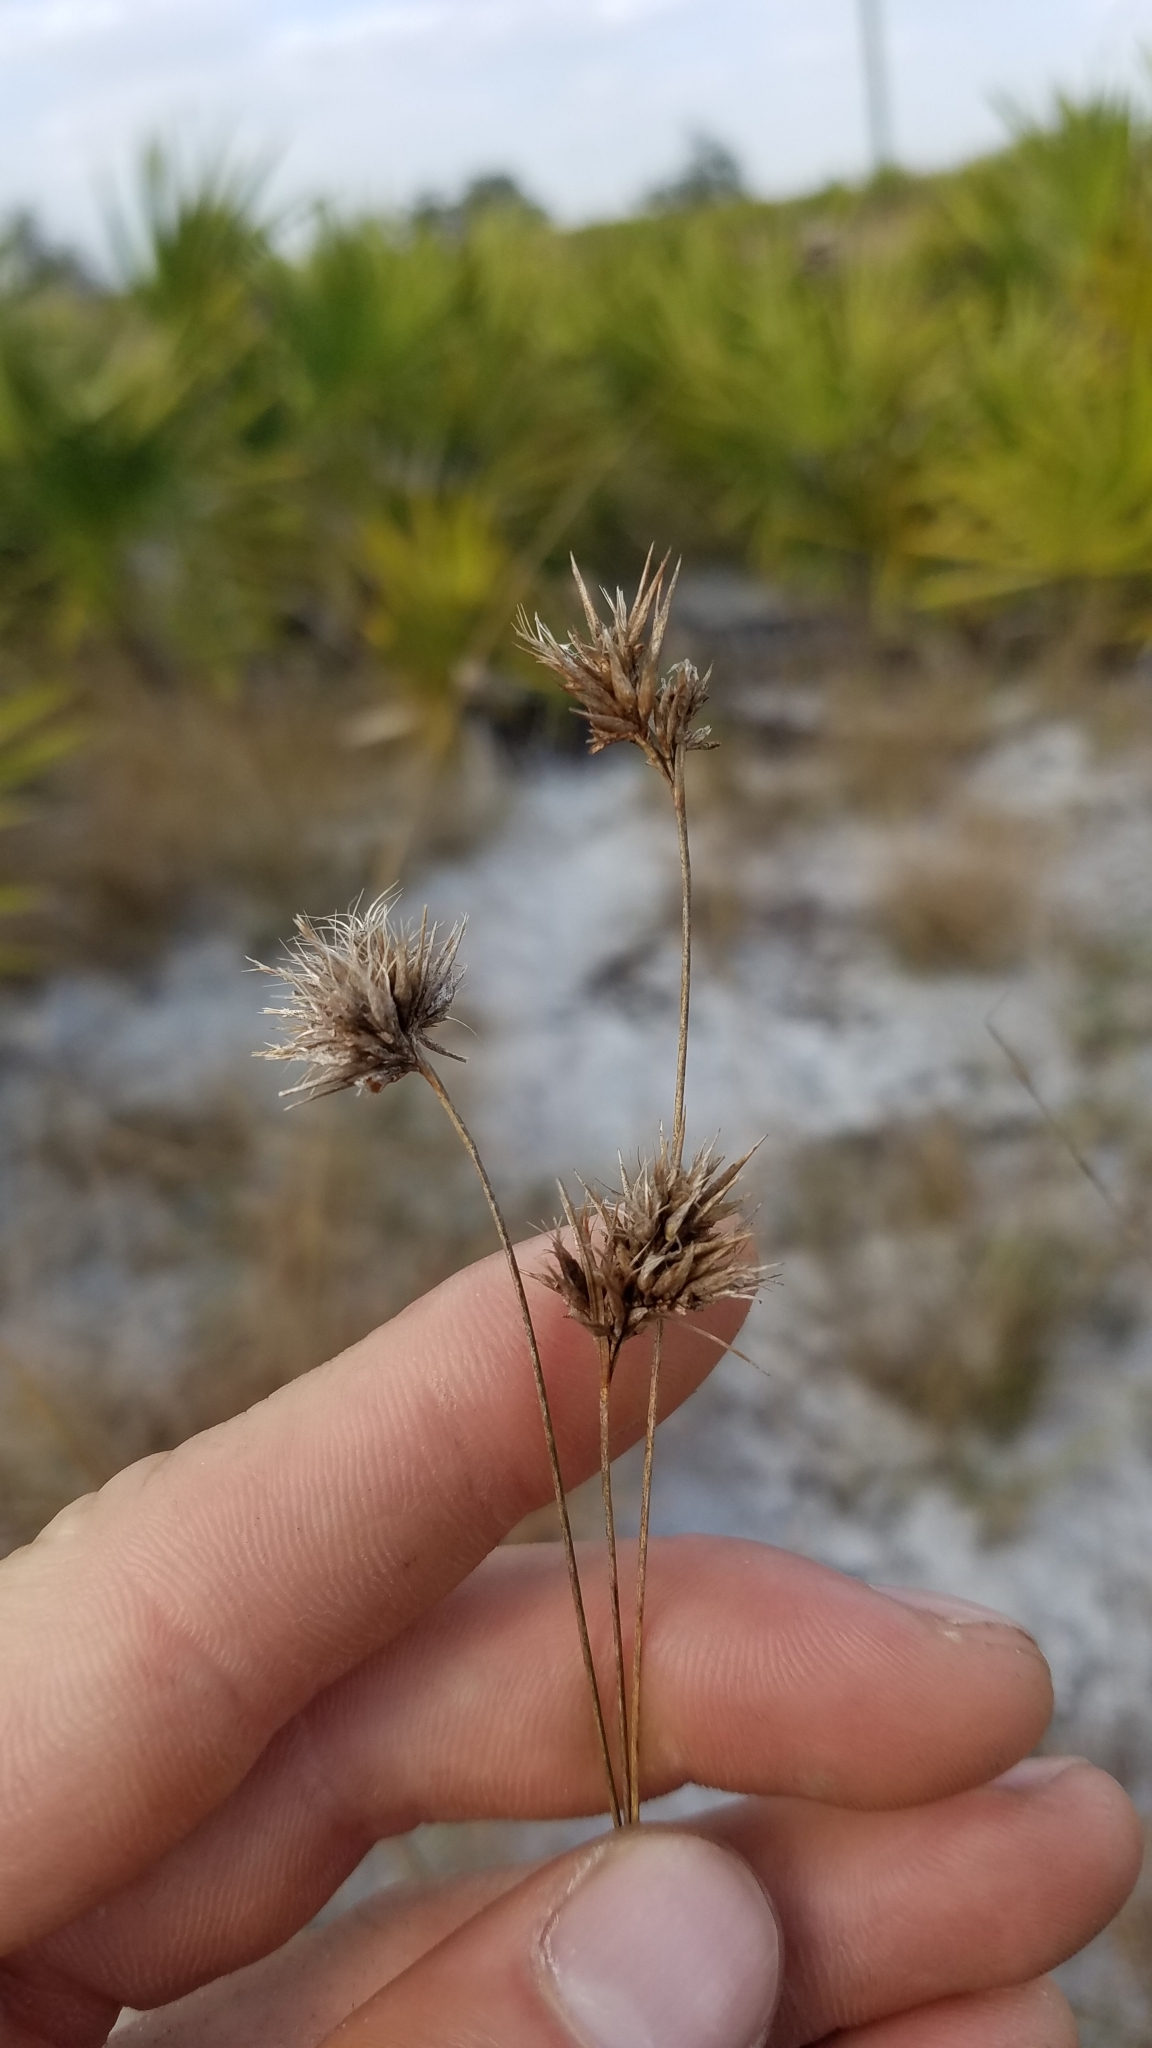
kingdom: Plantae
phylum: Tracheophyta
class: Liliopsida
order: Poales
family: Cyperaceae
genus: Rhynchospora
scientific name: Rhynchospora megaplumosa
